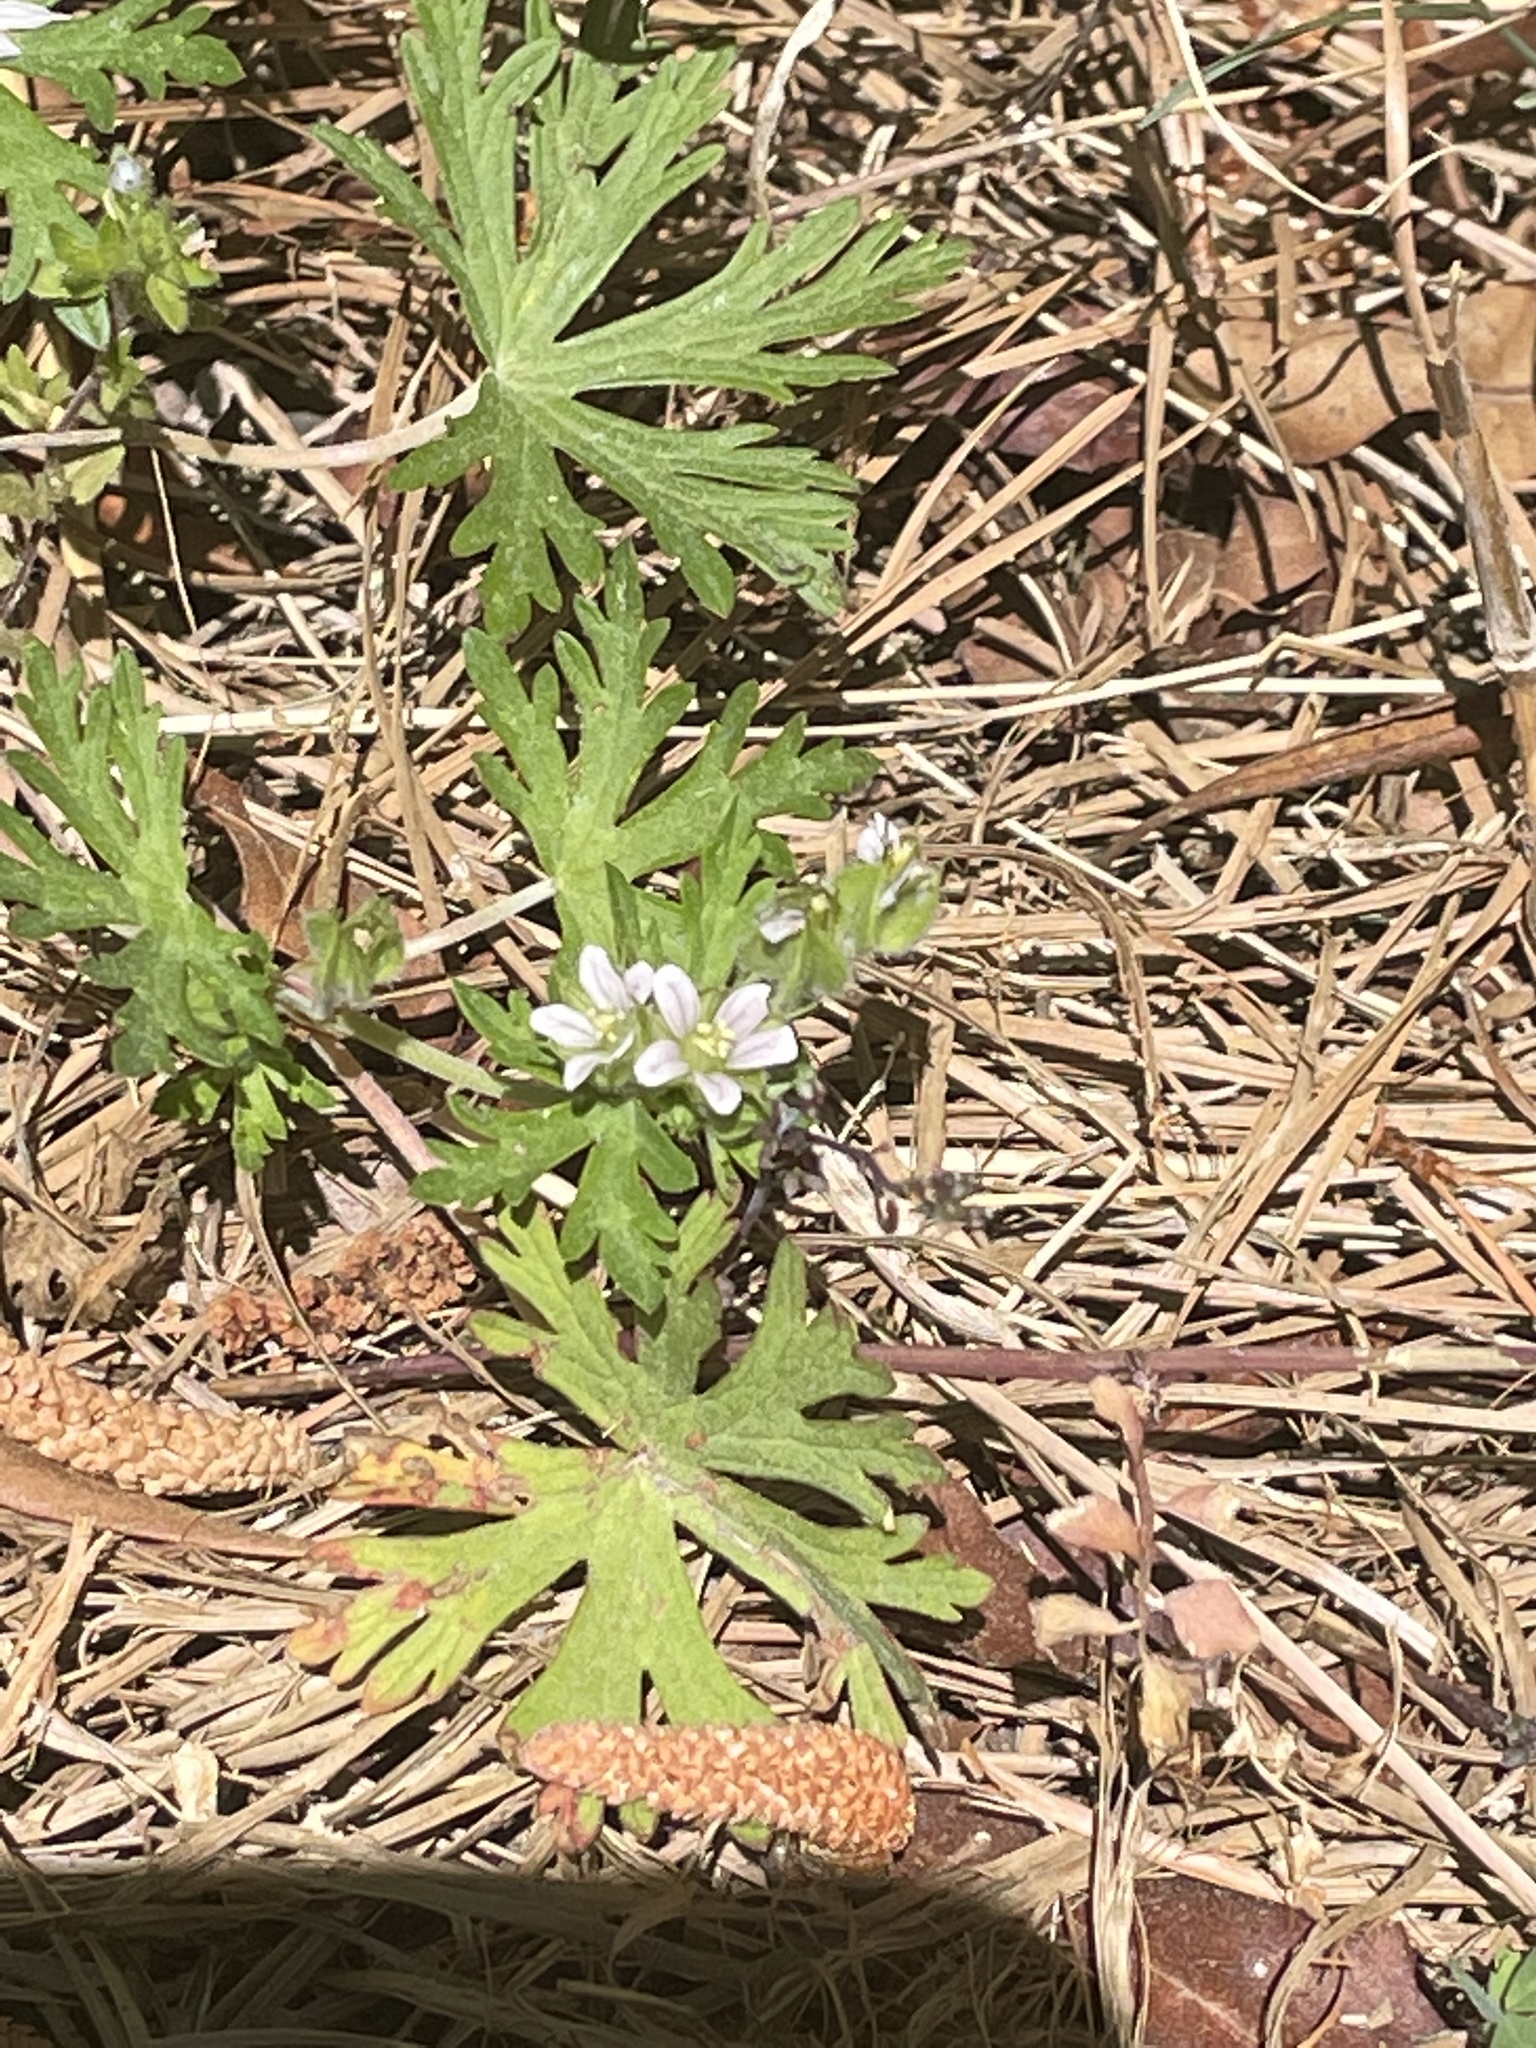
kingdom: Plantae
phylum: Tracheophyta
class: Magnoliopsida
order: Geraniales
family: Geraniaceae
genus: Geranium
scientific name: Geranium carolinianum
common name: Carolina crane's-bill
